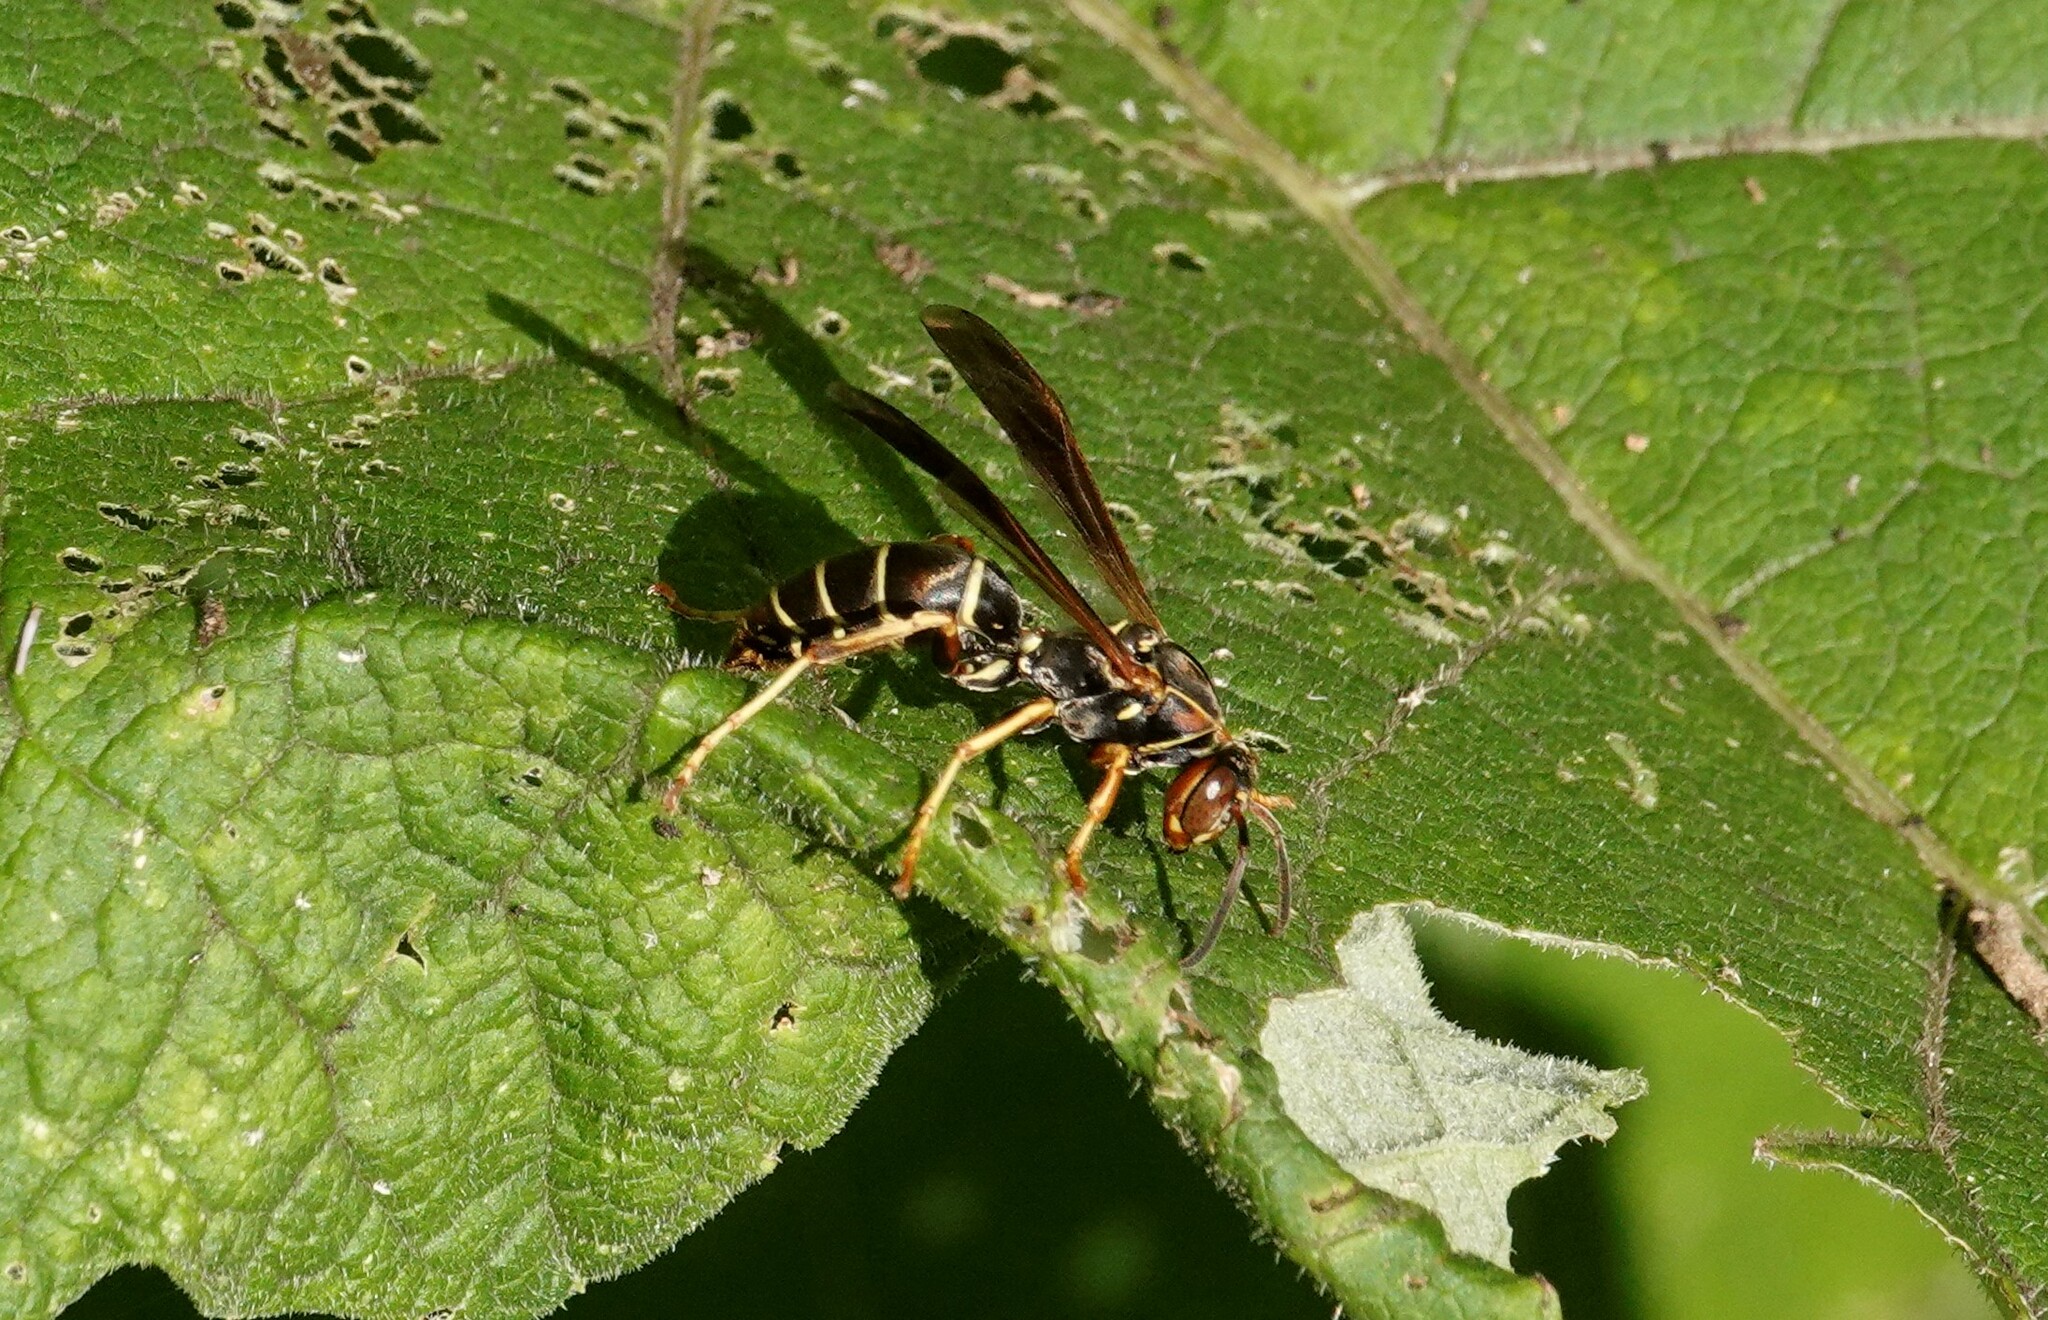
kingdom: Animalia
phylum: Arthropoda
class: Insecta
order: Hymenoptera
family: Eumenidae
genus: Polistes
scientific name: Polistes fuscatus
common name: Dark paper wasp
